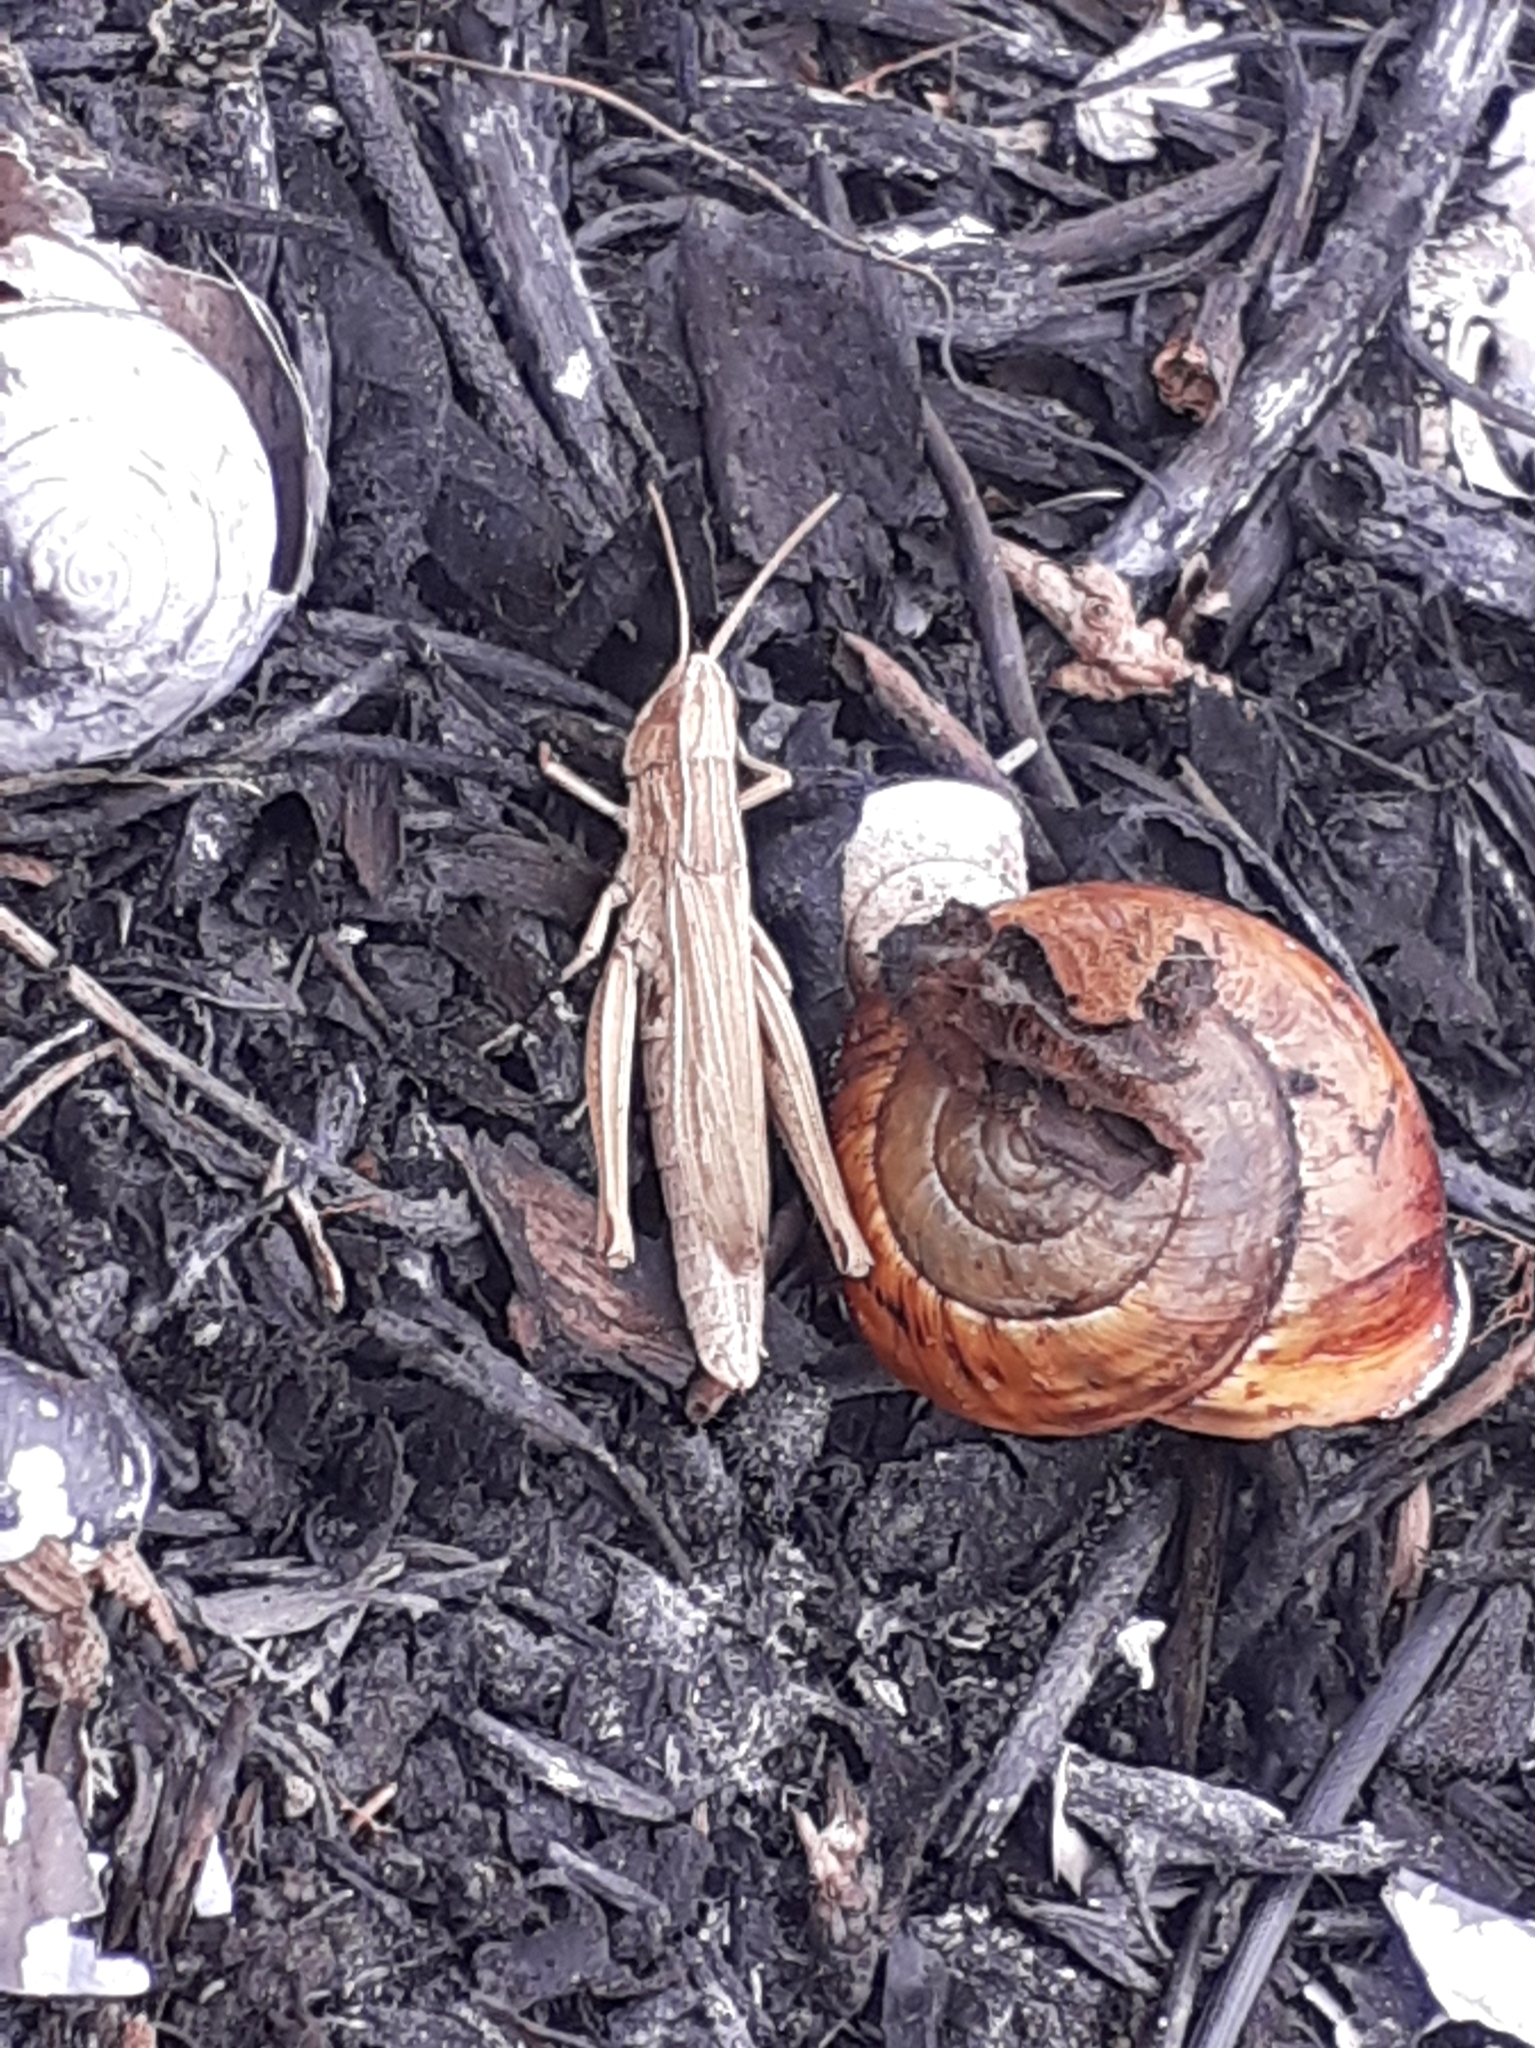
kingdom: Animalia
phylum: Arthropoda
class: Insecta
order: Orthoptera
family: Acrididae
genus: Chorthippus
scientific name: Chorthippus albomarginatus
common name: Lesser marsh grasshopper
